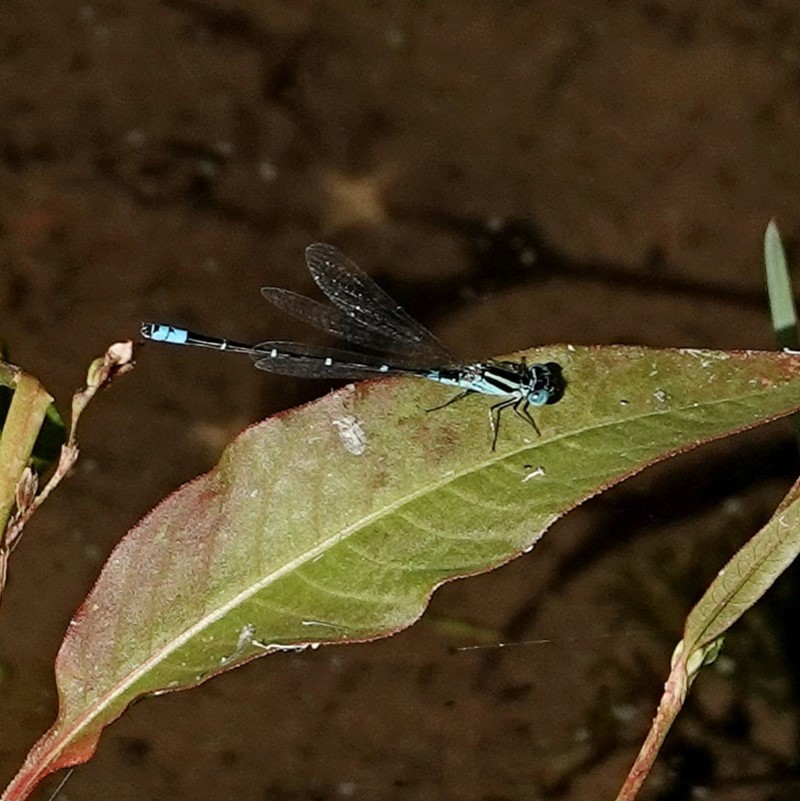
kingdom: Animalia
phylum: Arthropoda
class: Insecta
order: Odonata
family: Coenagrionidae
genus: Austroagrion
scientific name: Austroagrion watsoni
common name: Eastern billabongfly
